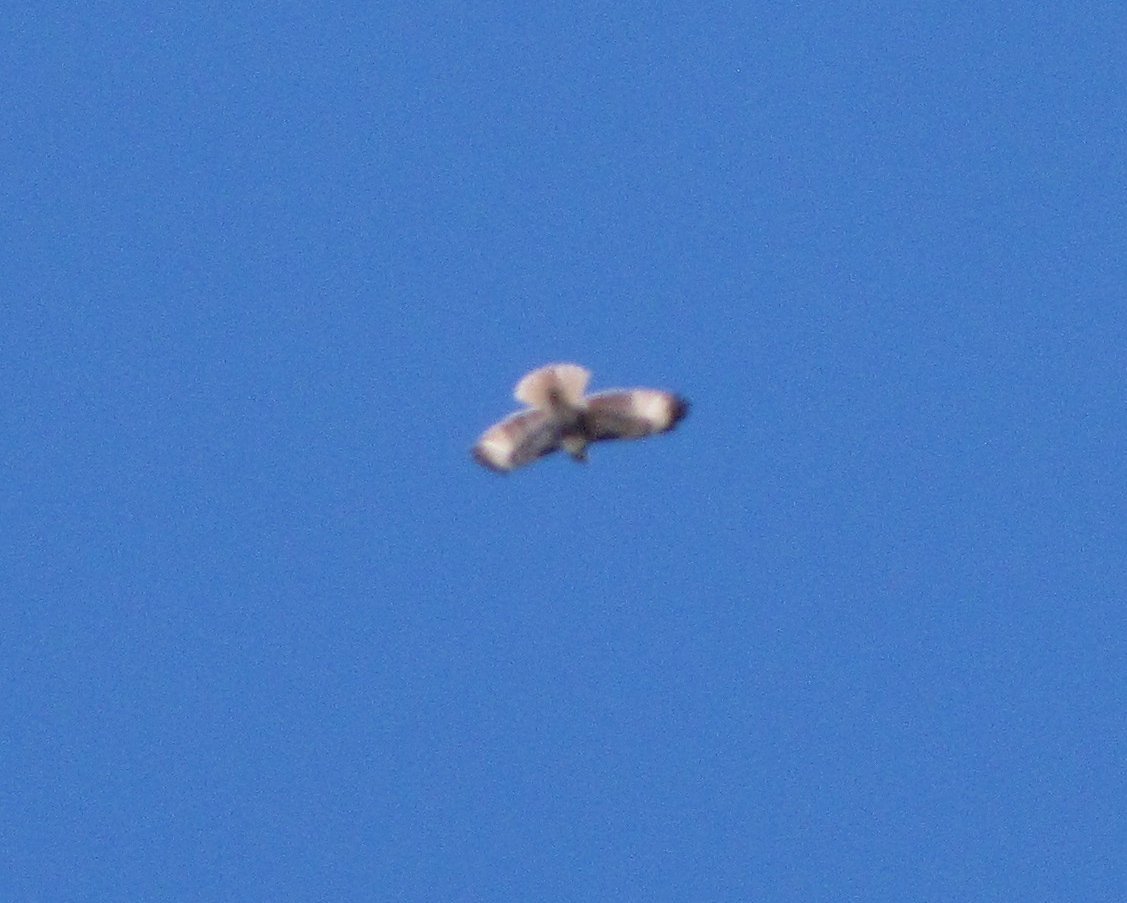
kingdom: Animalia
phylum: Chordata
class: Aves
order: Accipitriformes
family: Accipitridae
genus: Buteo
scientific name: Buteo jamaicensis
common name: Red-tailed hawk
